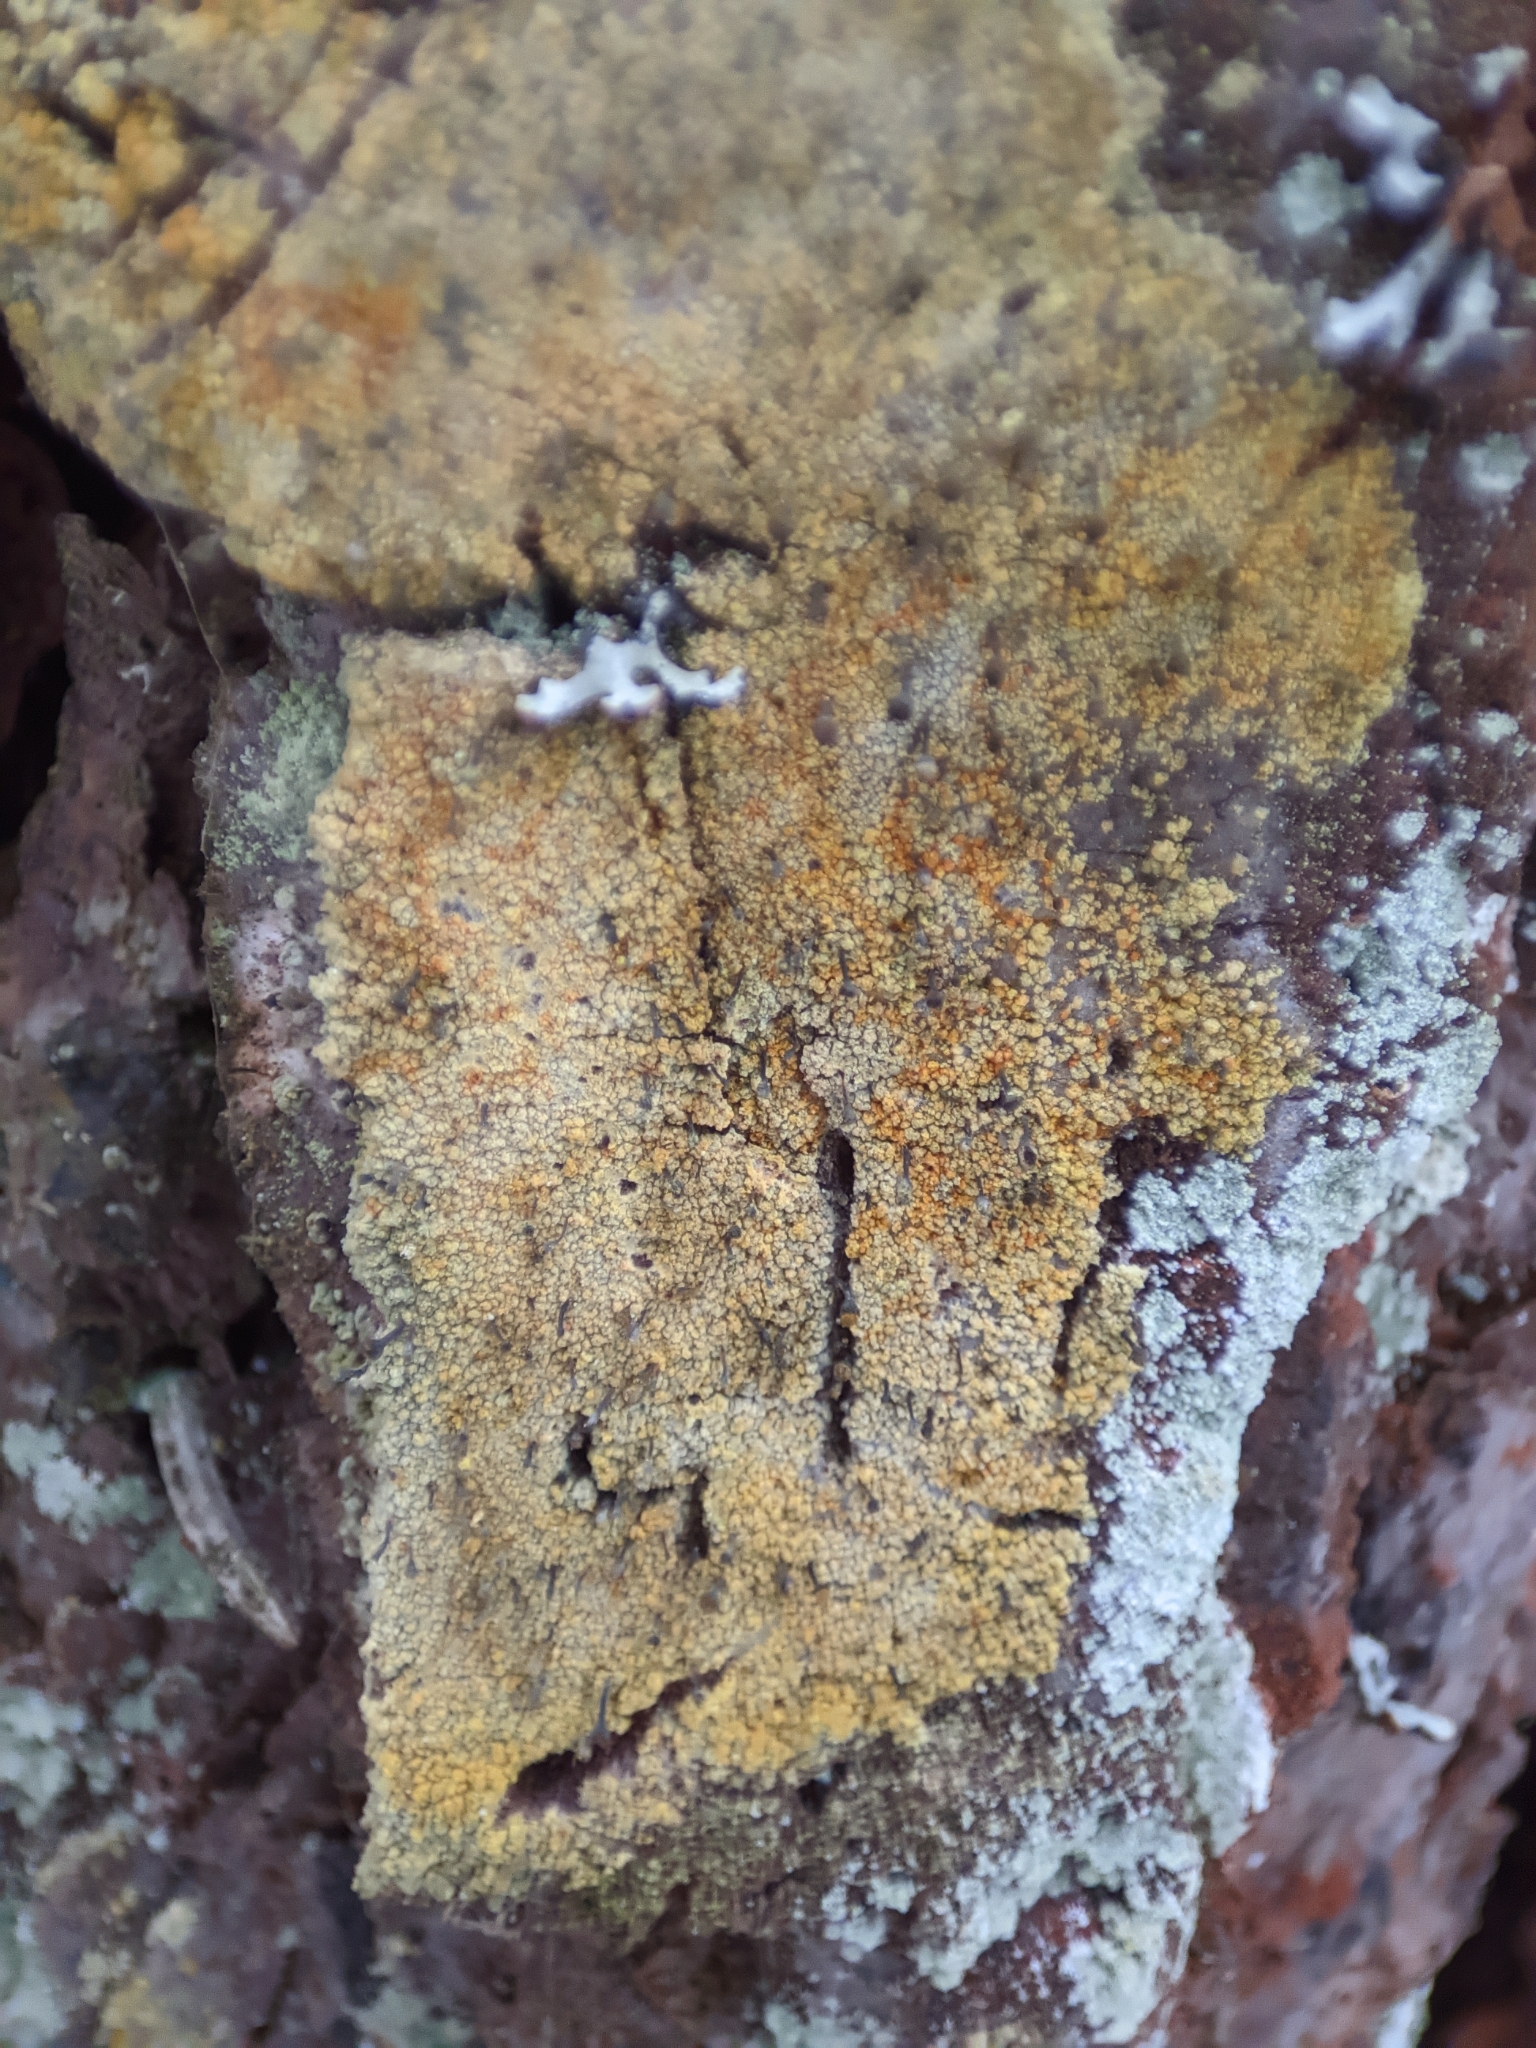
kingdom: Fungi
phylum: Ascomycota
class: Coniocybomycetes
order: Coniocybales
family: Coniocybaceae
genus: Chaenotheca
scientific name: Chaenotheca ferruginea
